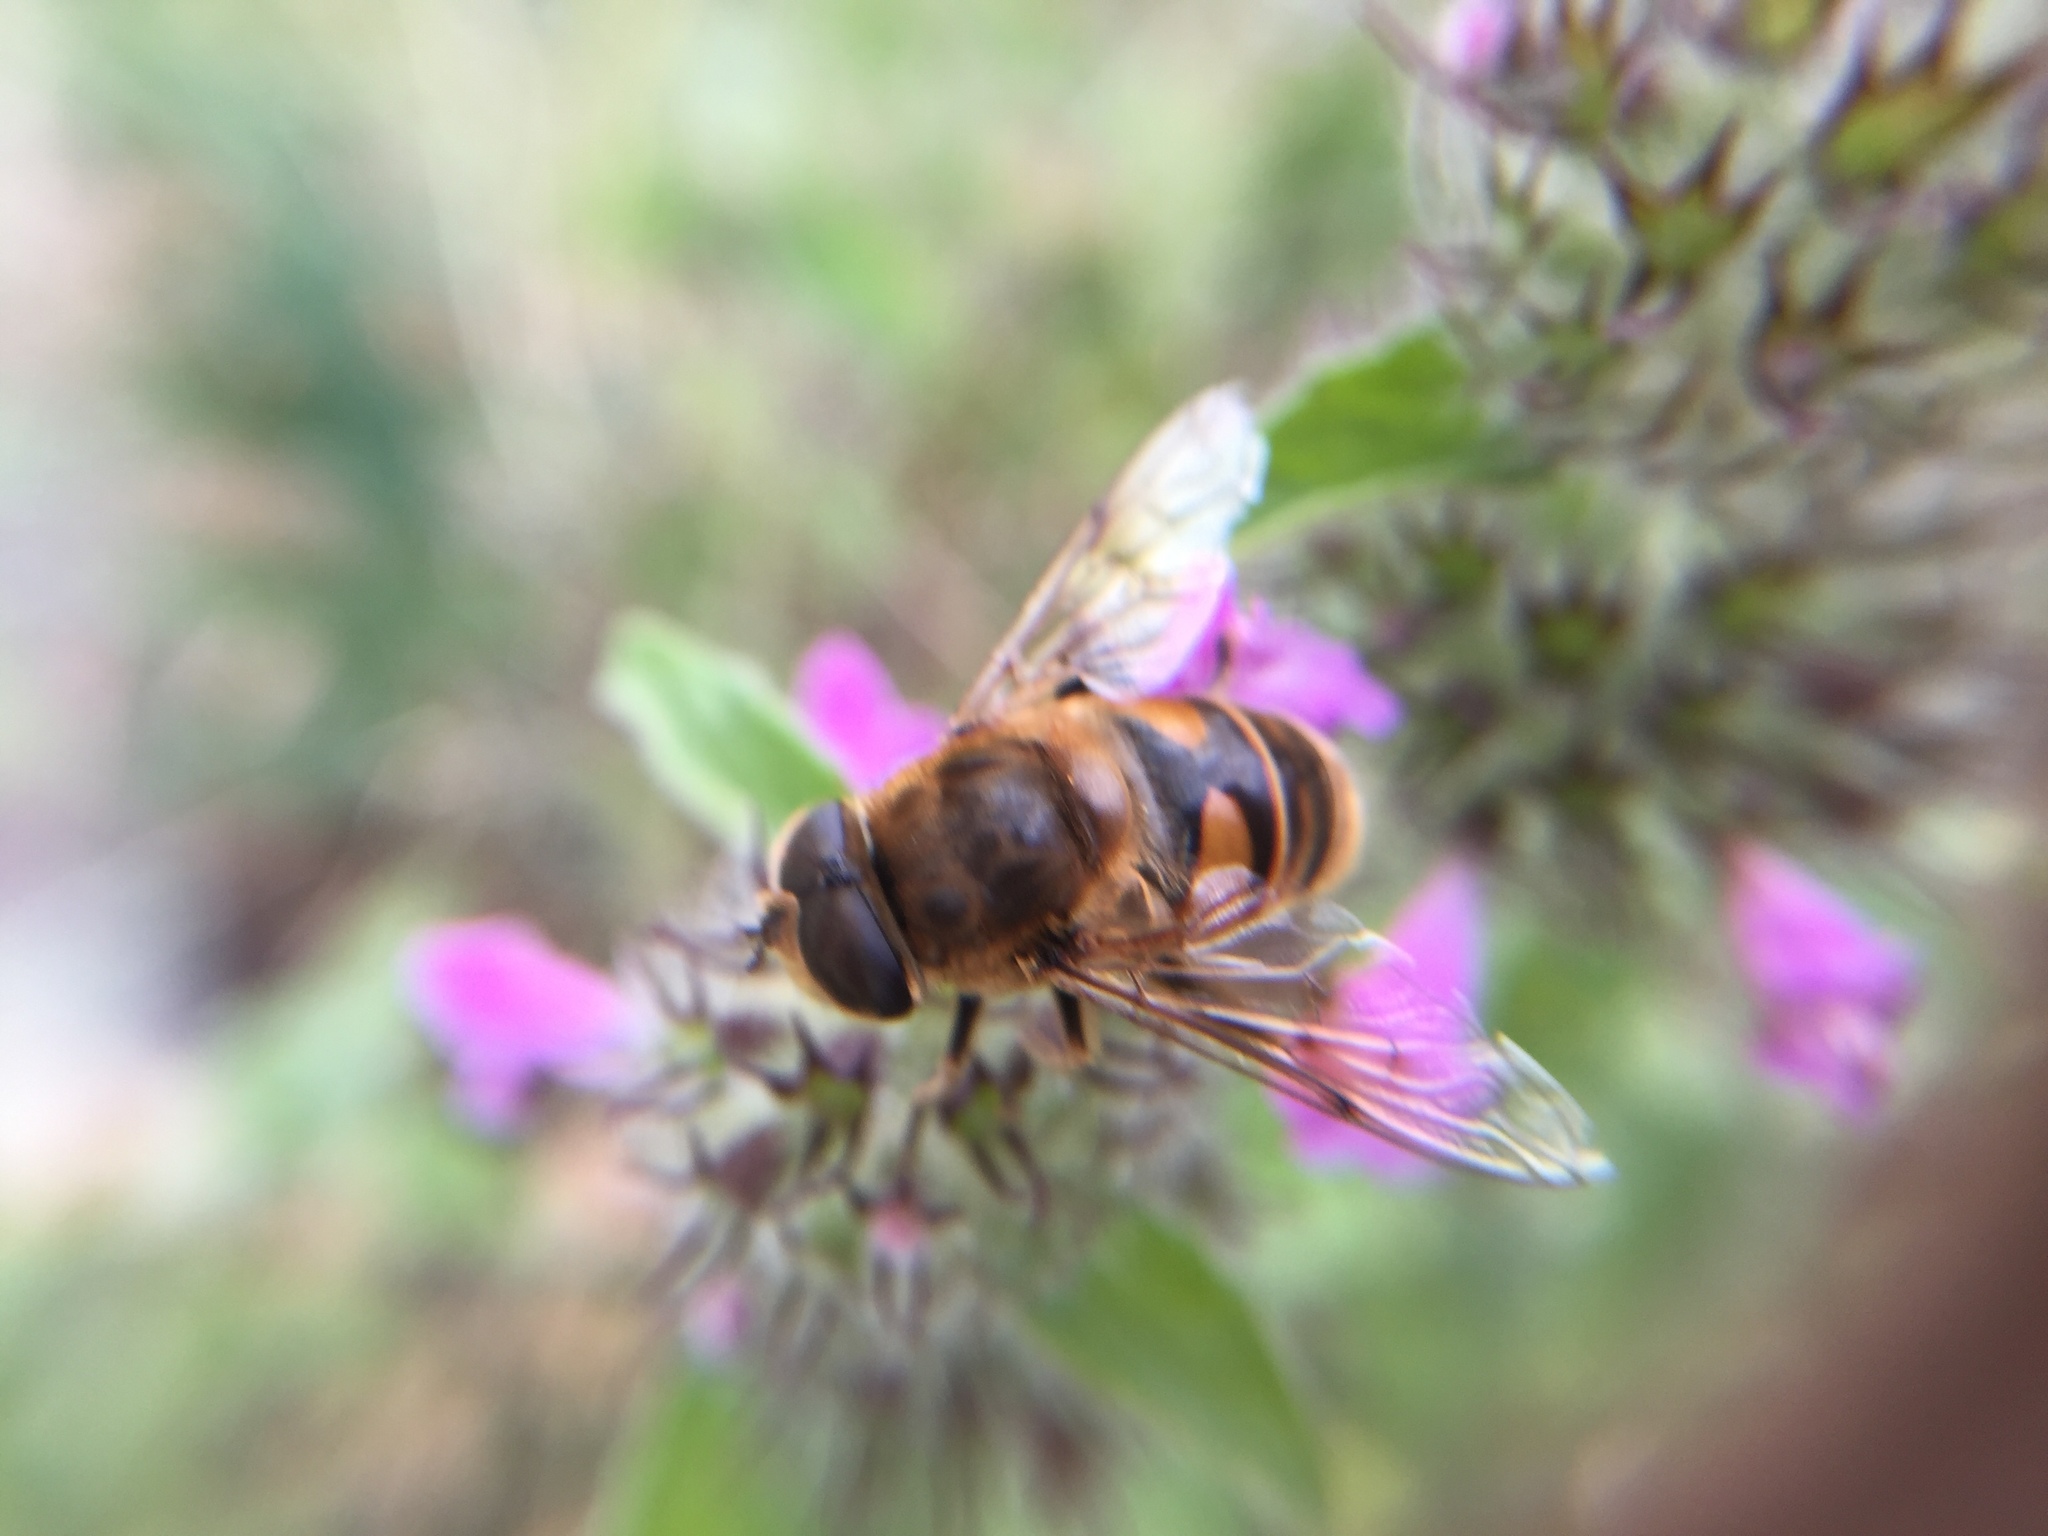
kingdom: Animalia
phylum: Arthropoda
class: Insecta
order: Diptera
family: Syrphidae
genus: Eristalis
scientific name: Eristalis tenax
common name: Drone fly
